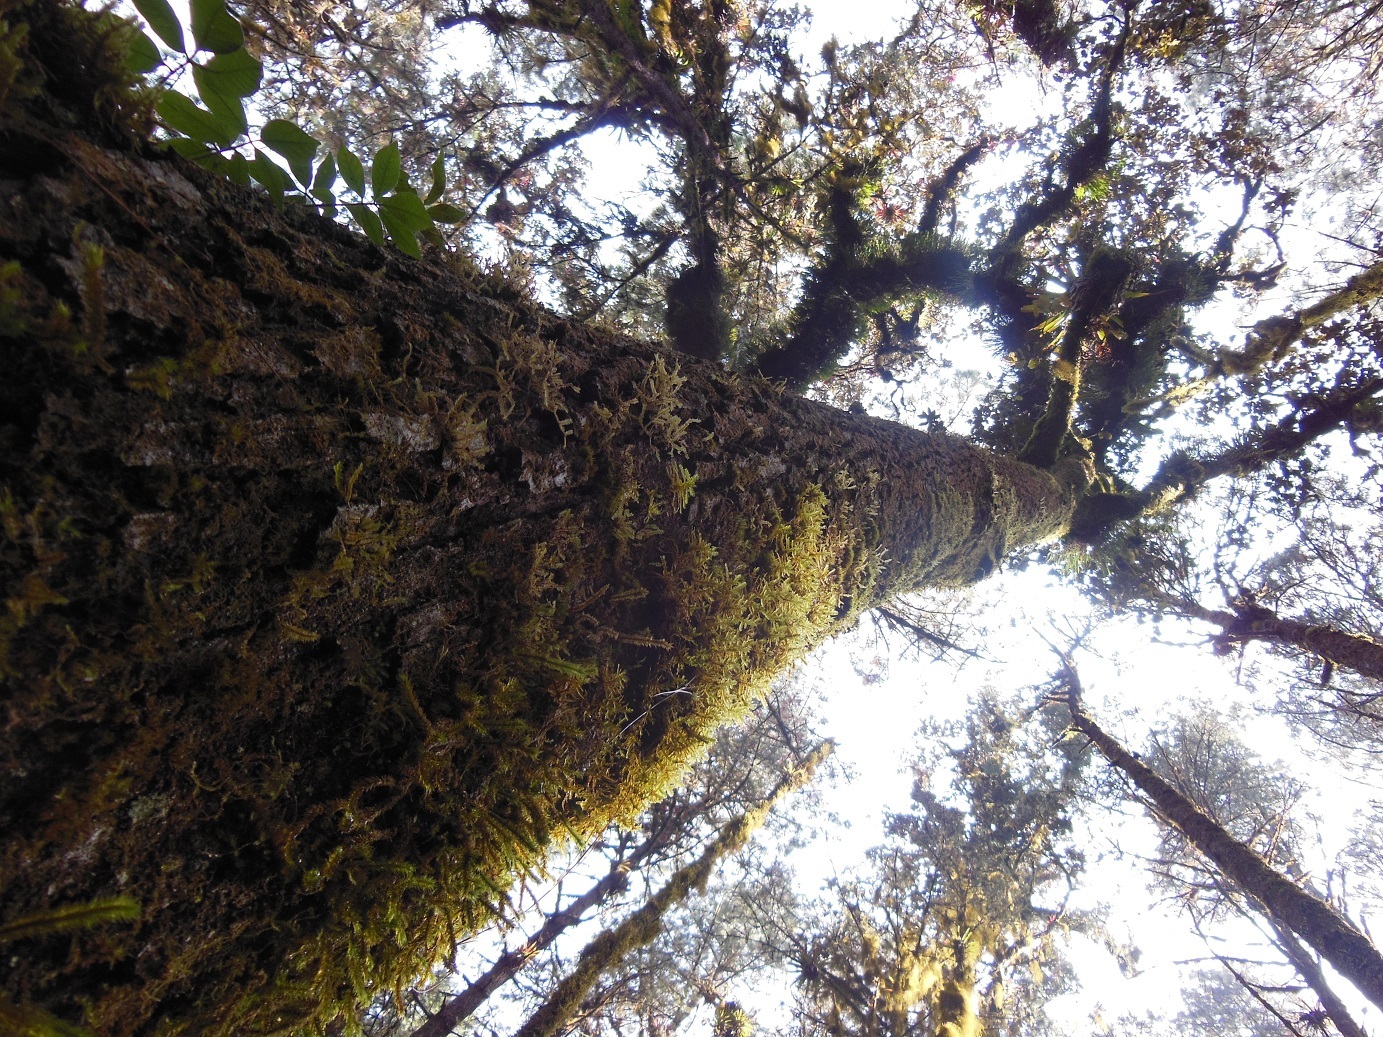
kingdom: Plantae
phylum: Tracheophyta
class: Magnoliopsida
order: Fagales
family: Fagaceae
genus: Quercus
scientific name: Quercus laurina
